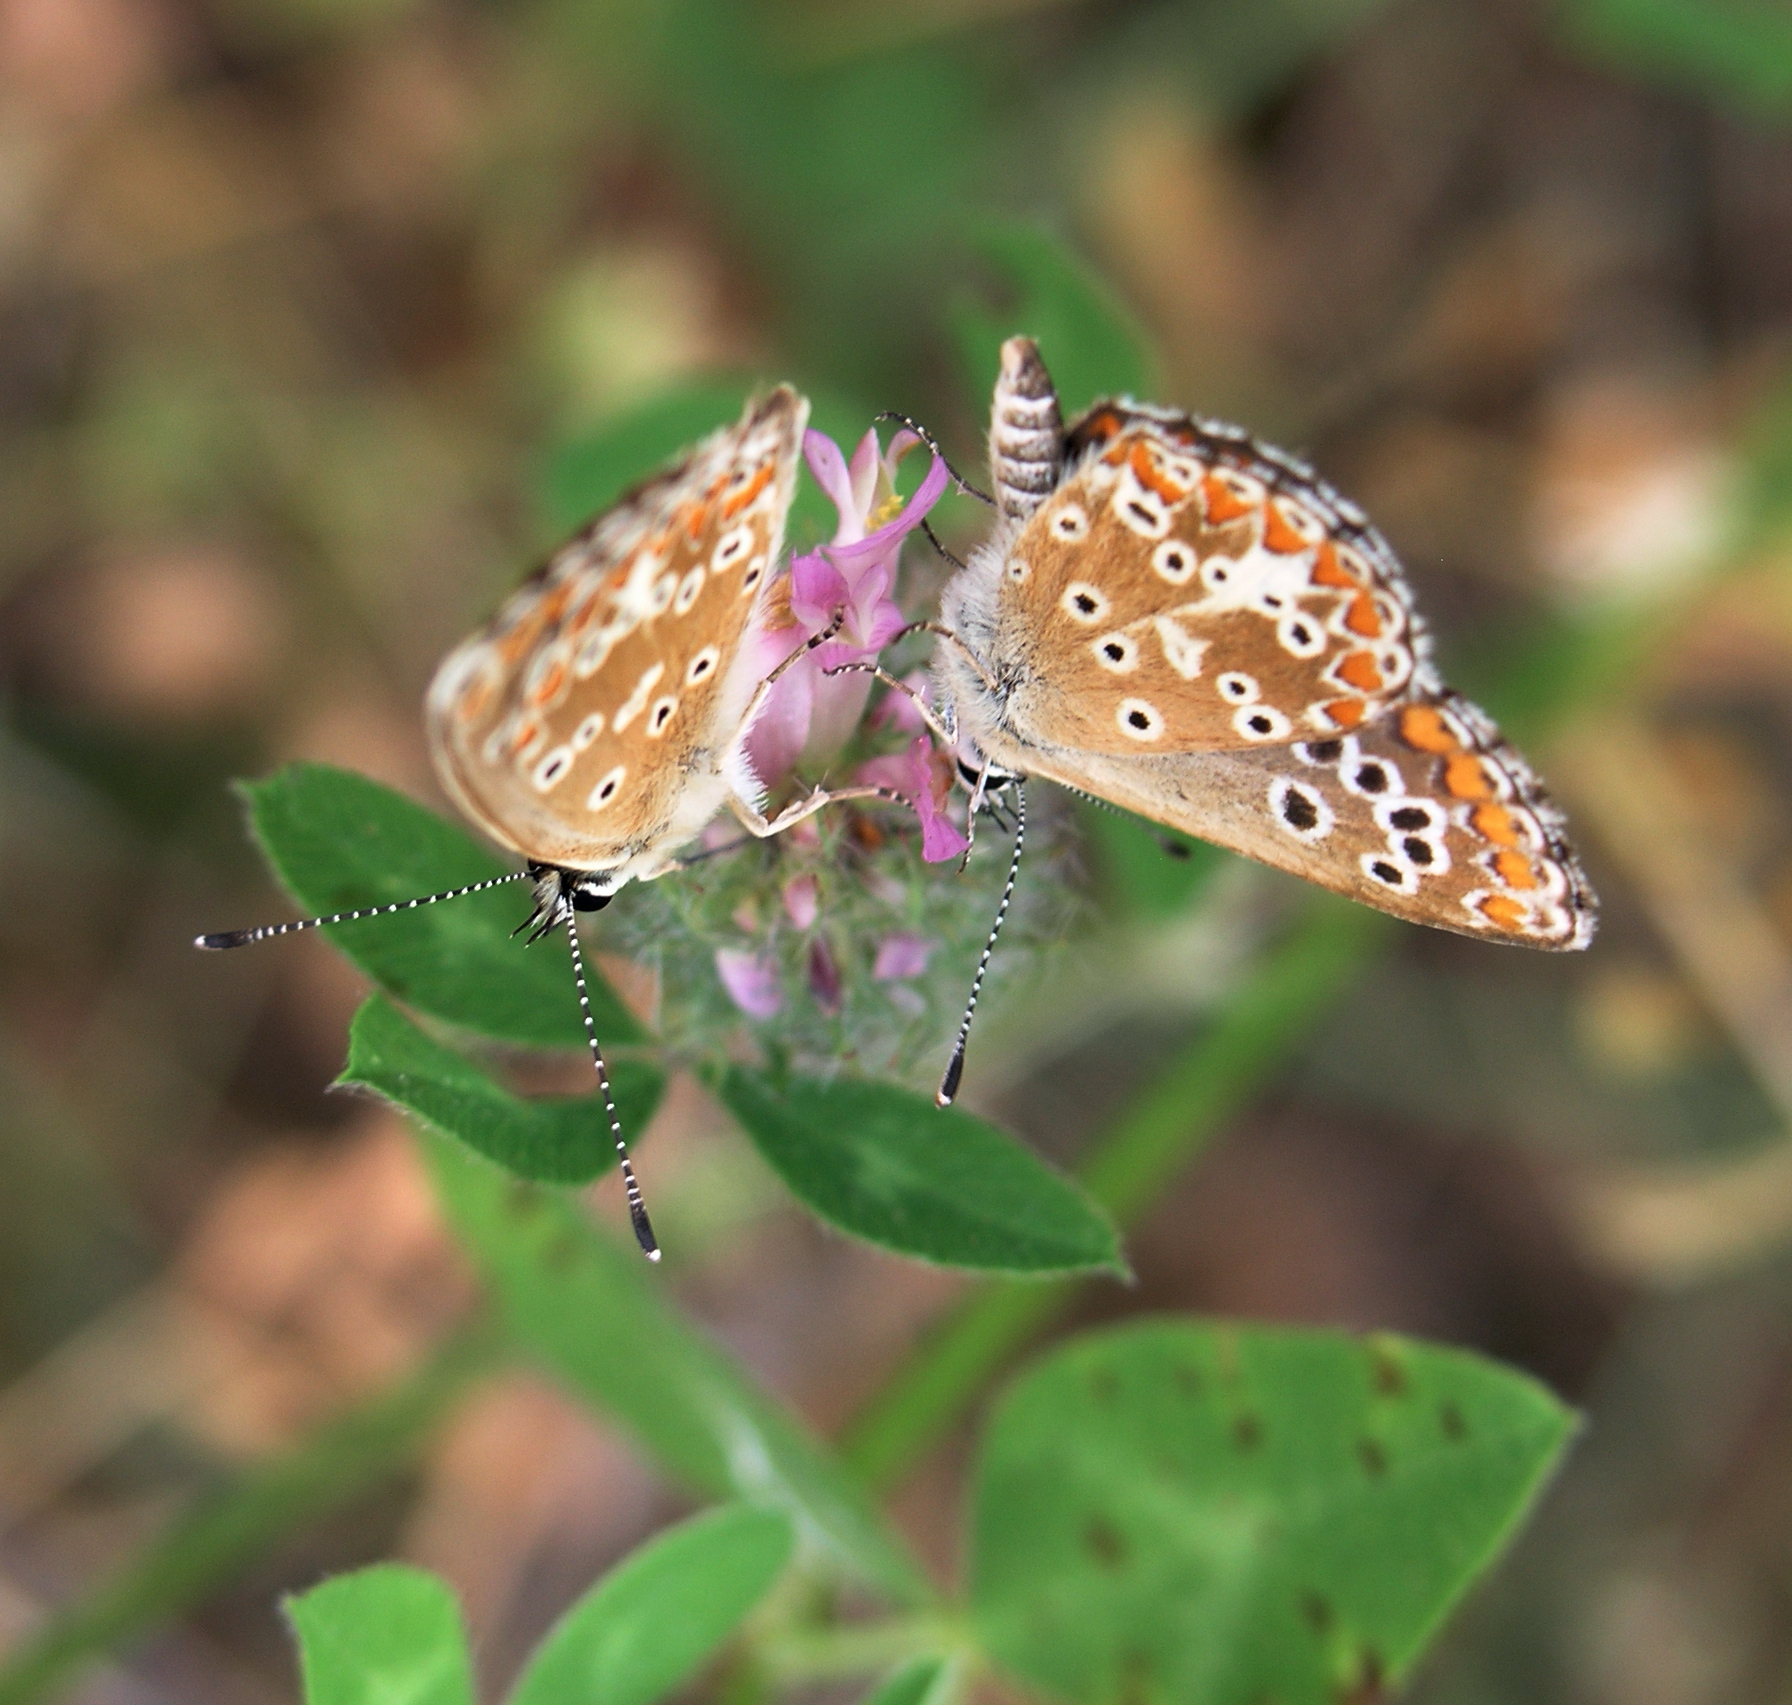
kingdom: Animalia
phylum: Arthropoda
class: Insecta
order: Lepidoptera
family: Lycaenidae
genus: Aricia
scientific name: Aricia cramera
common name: Eschscholtz´s brown  argus
